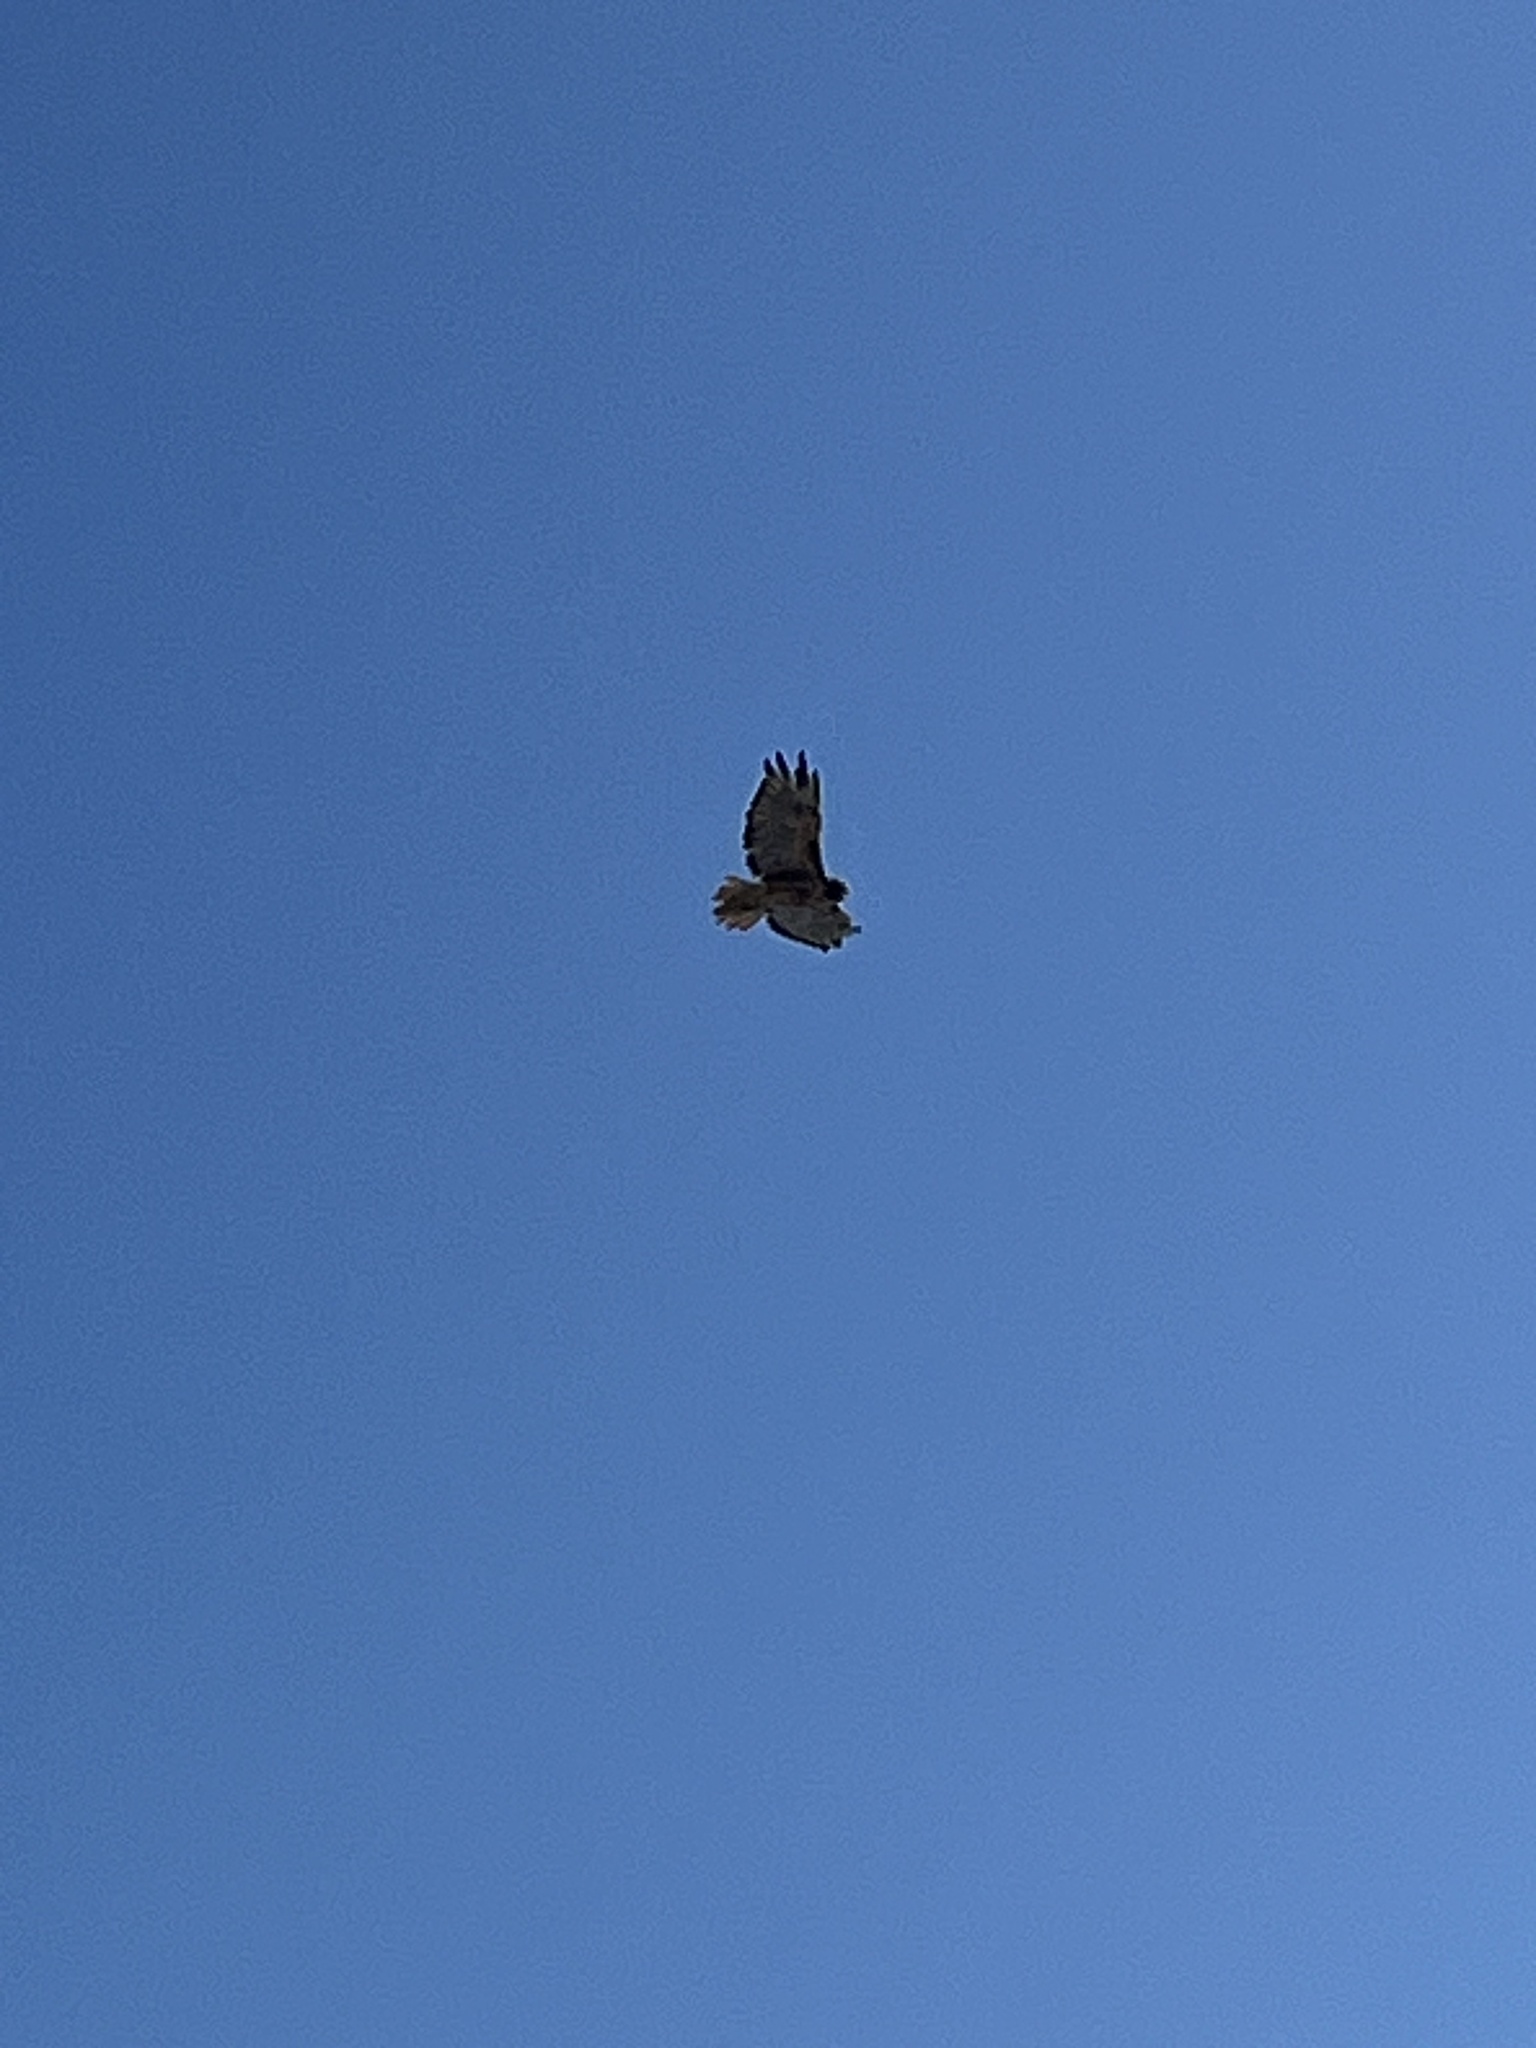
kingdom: Animalia
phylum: Chordata
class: Aves
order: Accipitriformes
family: Accipitridae
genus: Buteo
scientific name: Buteo jamaicensis
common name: Red-tailed hawk
